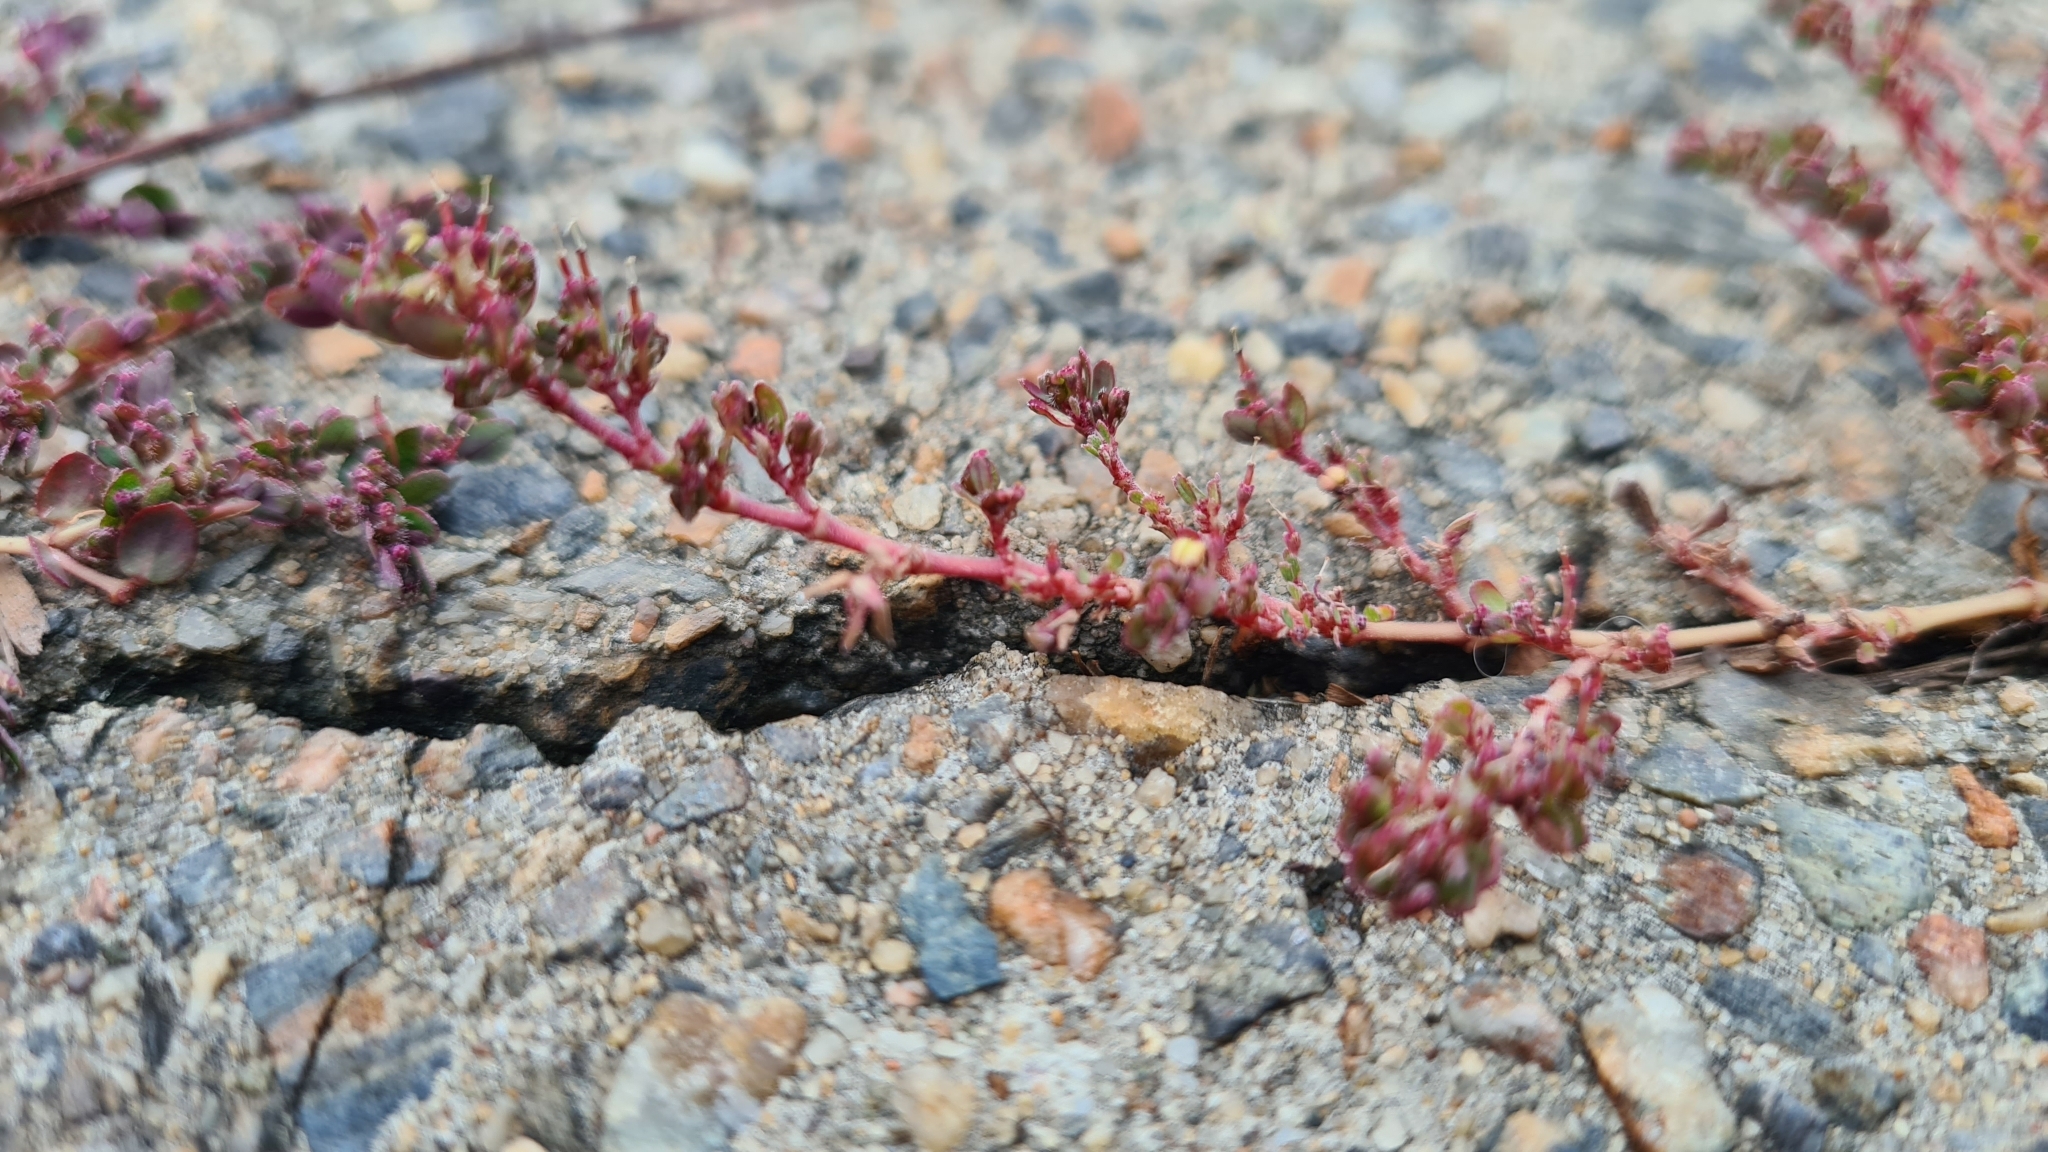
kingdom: Plantae
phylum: Tracheophyta
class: Magnoliopsida
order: Malpighiales
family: Euphorbiaceae
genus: Euphorbia
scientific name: Euphorbia prostrata
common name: Prostrate sandmat
